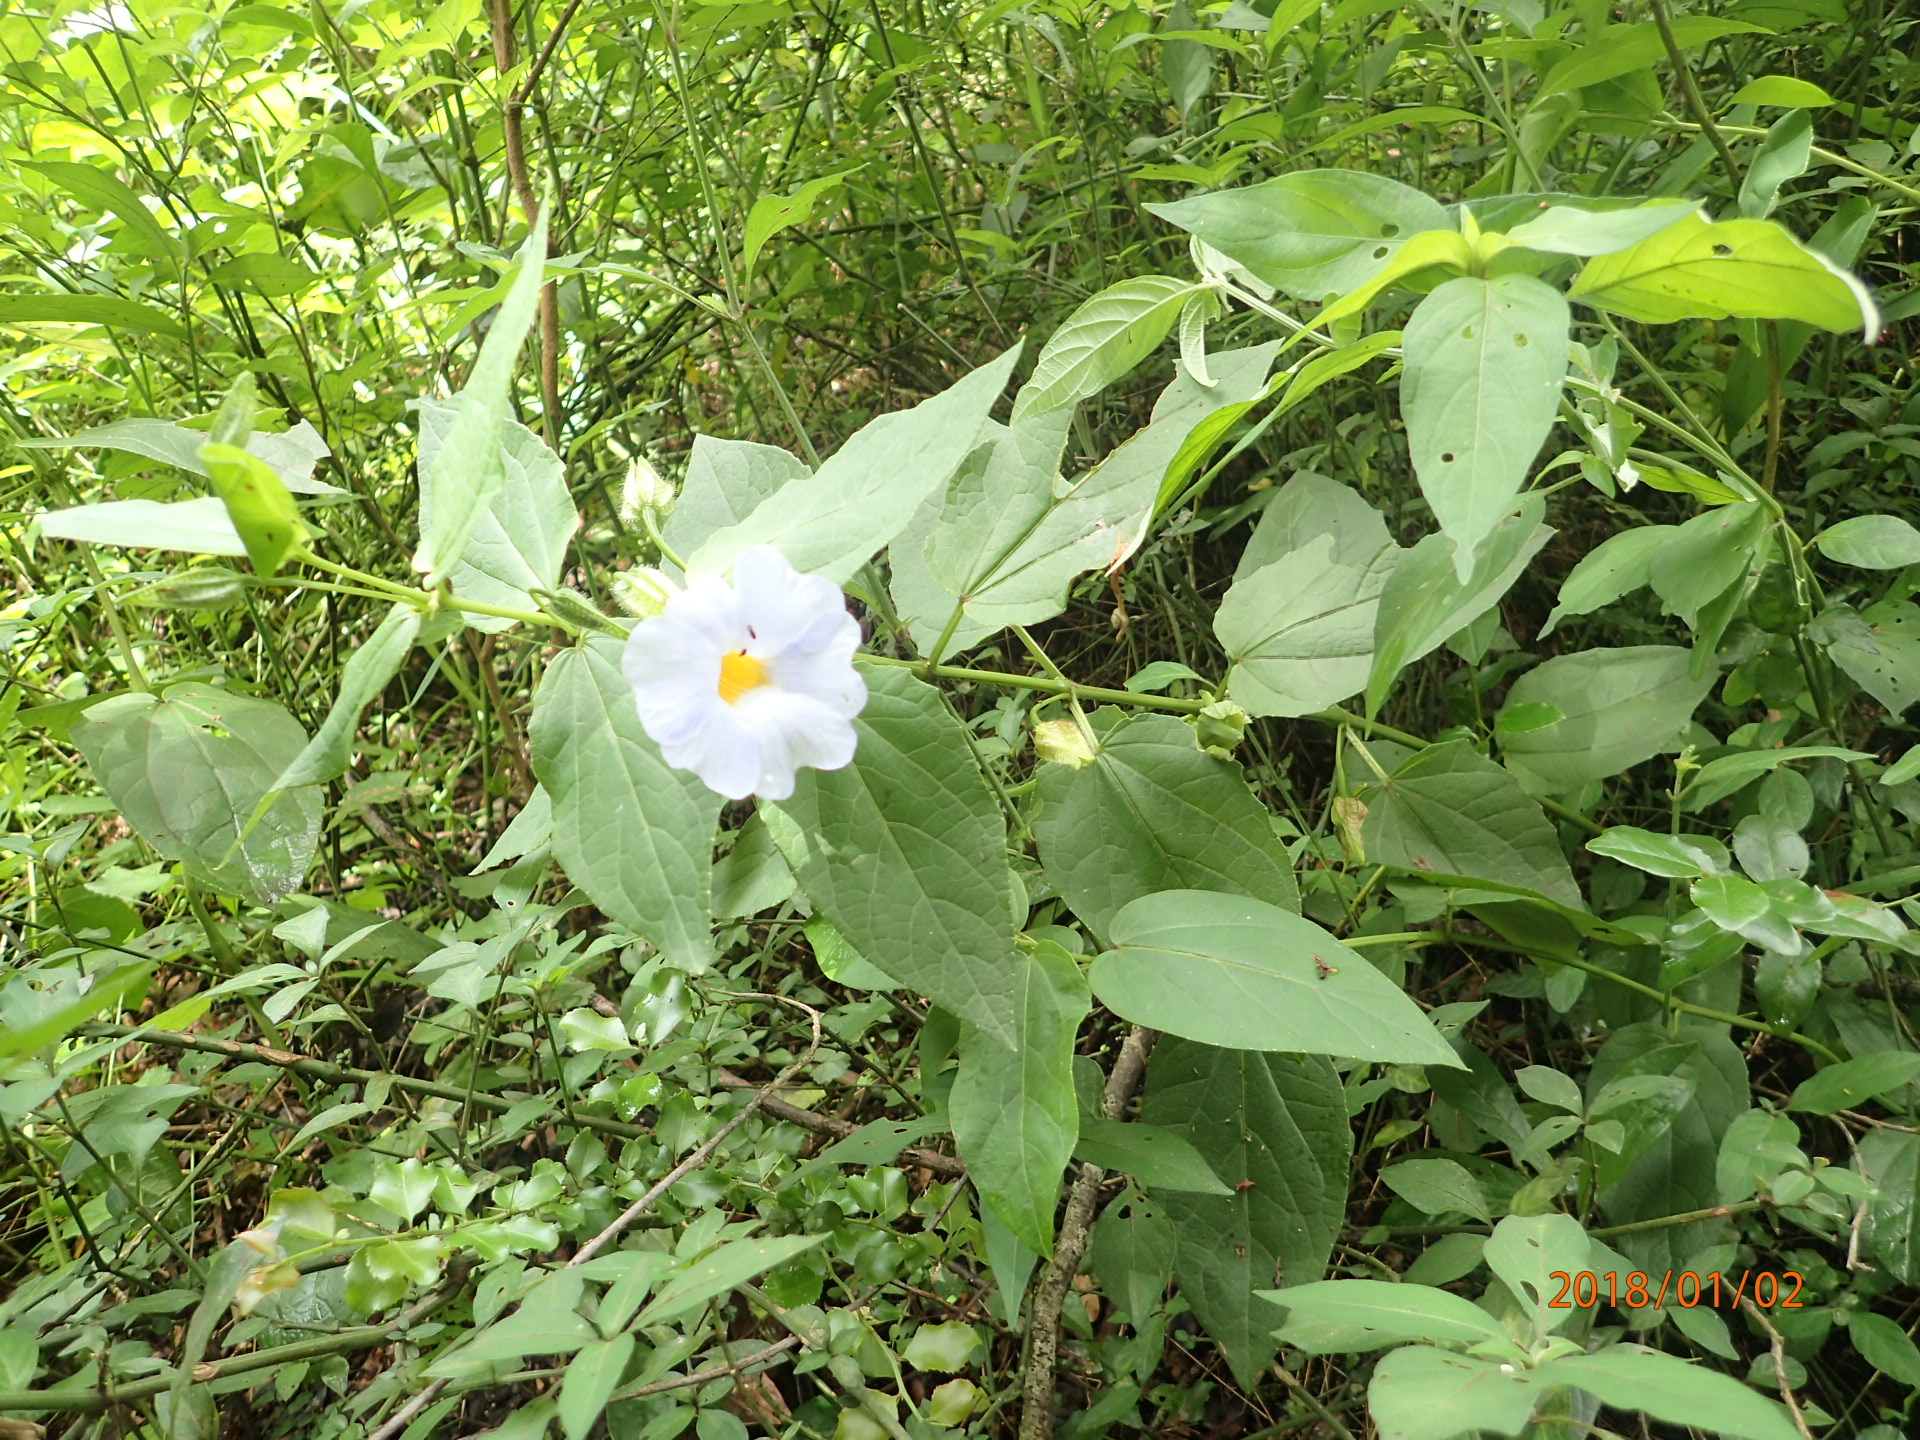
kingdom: Plantae
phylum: Tracheophyta
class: Magnoliopsida
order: Lamiales
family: Acanthaceae
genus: Thunbergia
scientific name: Thunbergia natalensis
